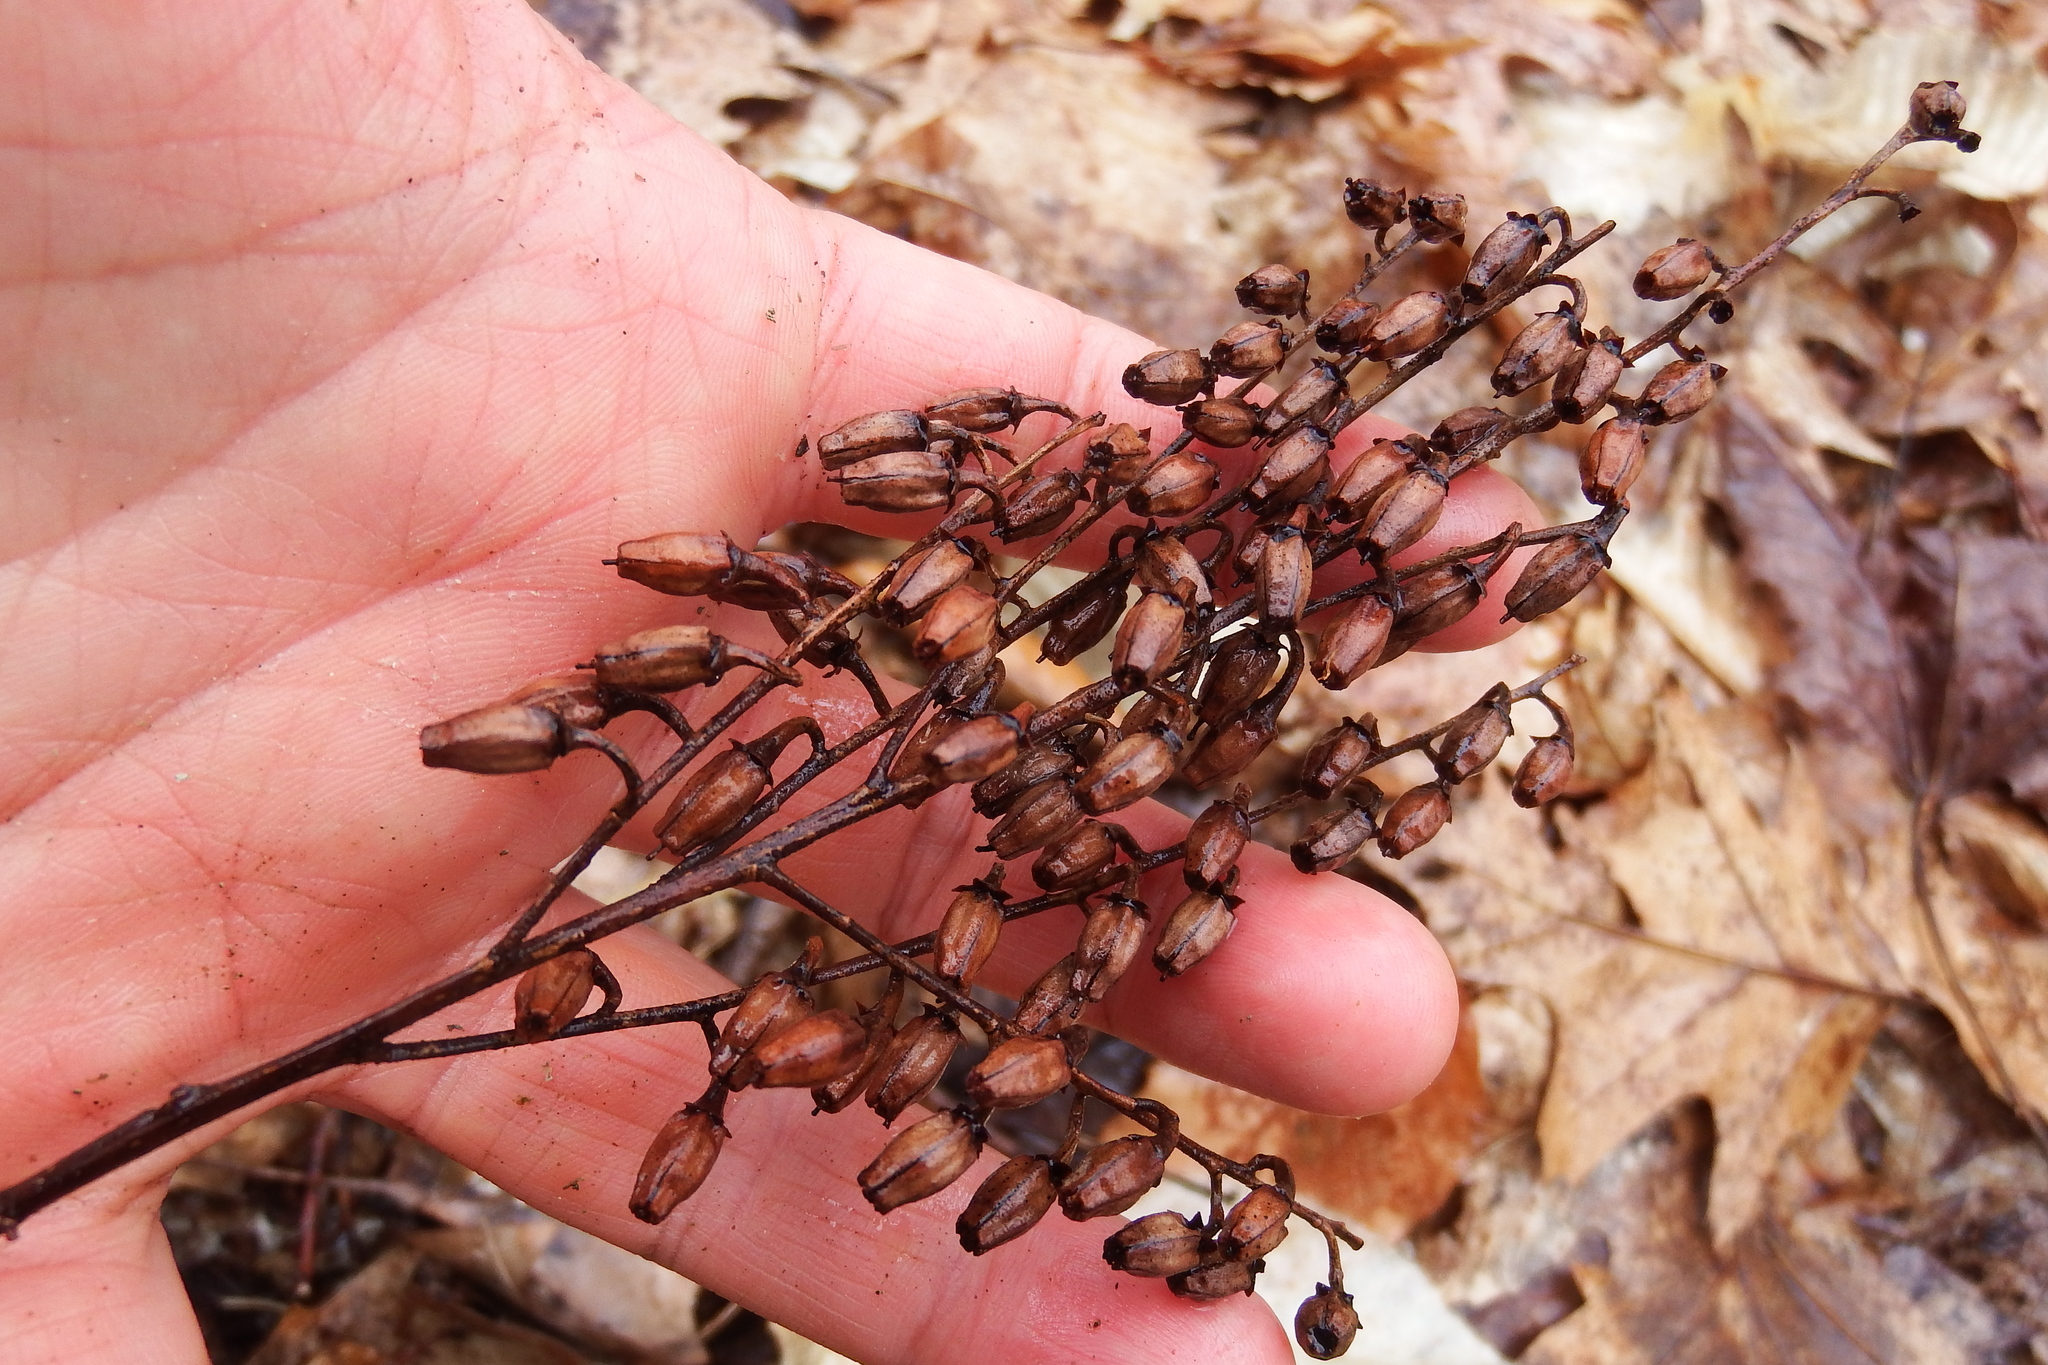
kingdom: Plantae
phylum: Tracheophyta
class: Magnoliopsida
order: Ericales
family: Ericaceae
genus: Oxydendrum
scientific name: Oxydendrum arboreum
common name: Sourwood
